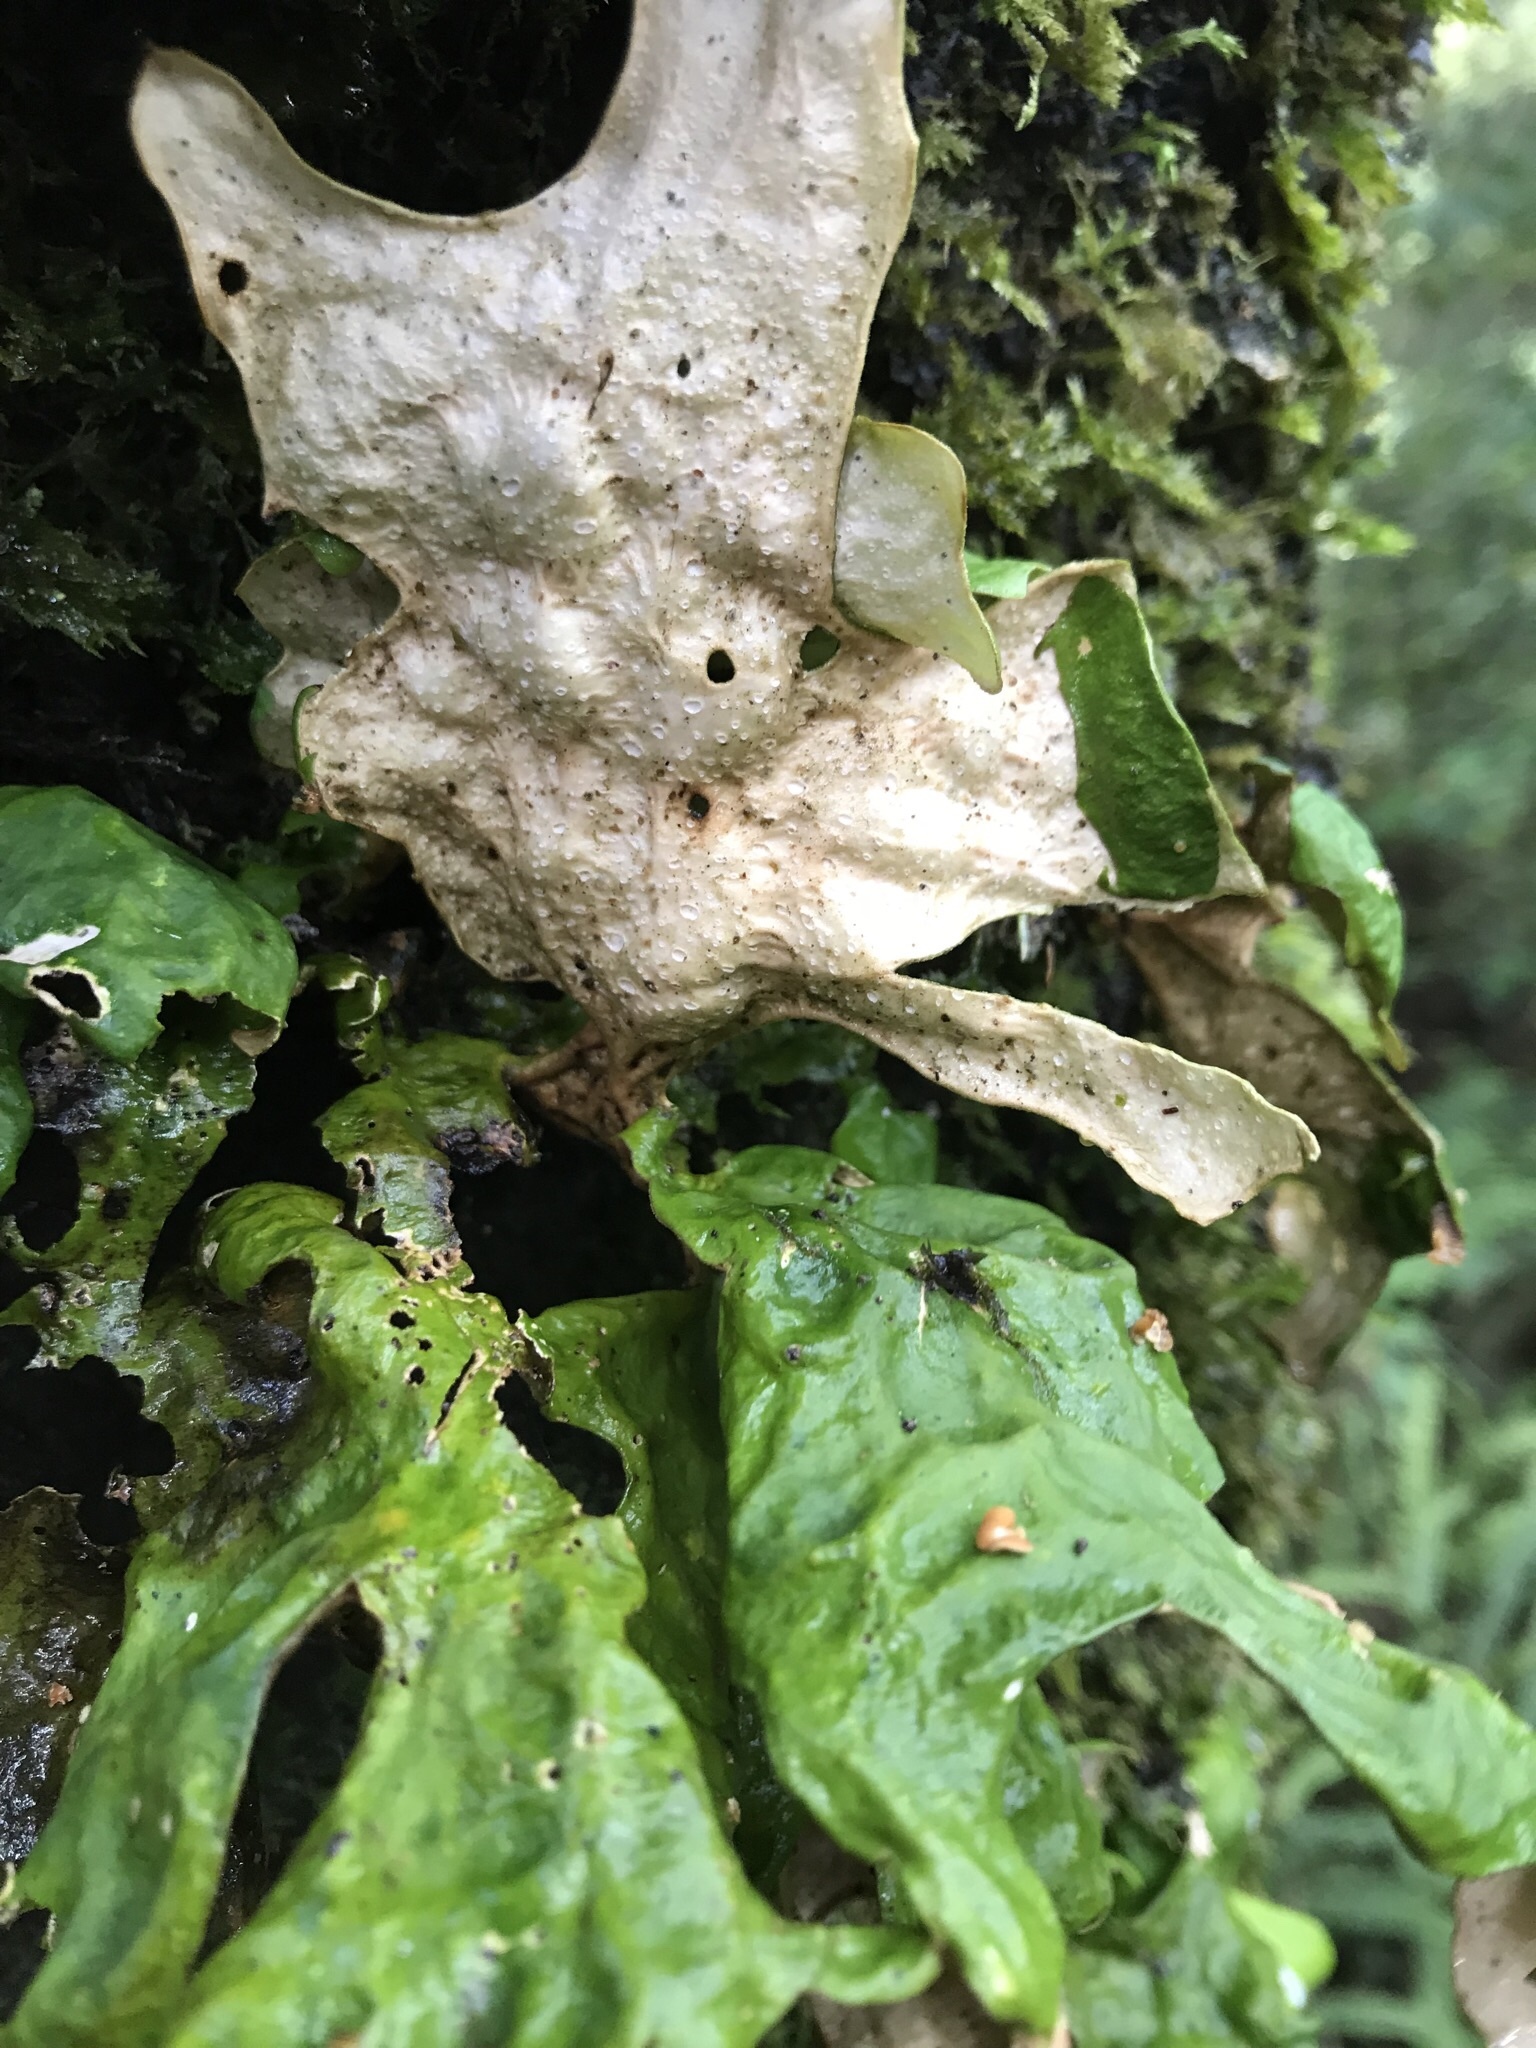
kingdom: Fungi
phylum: Ascomycota
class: Lecanoromycetes
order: Peltigerales
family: Lobariaceae
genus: Sticta
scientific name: Sticta latifrons
